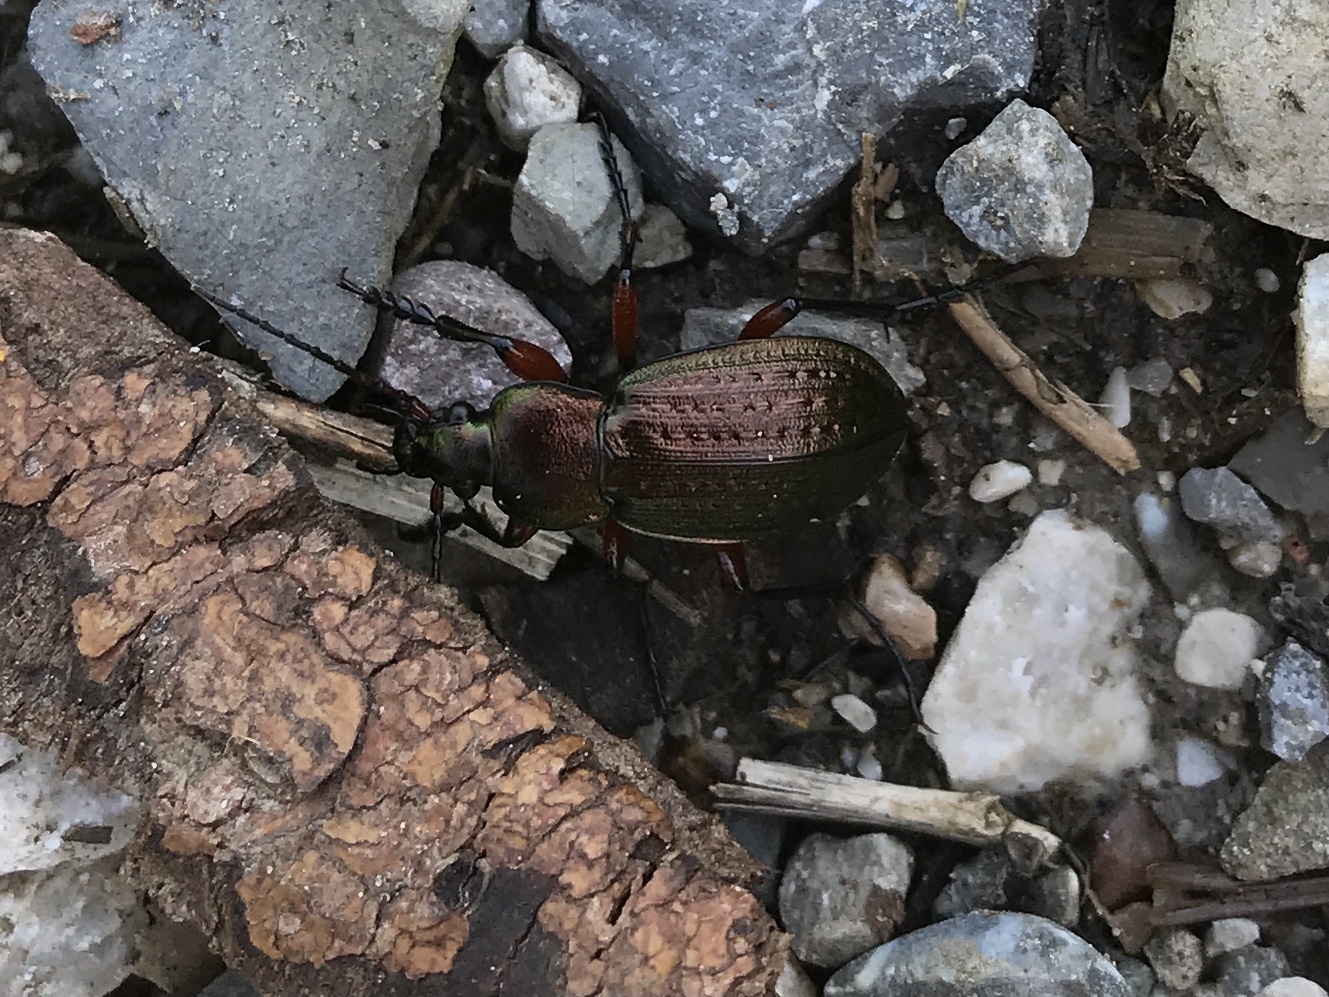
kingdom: Animalia
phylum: Arthropoda
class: Insecta
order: Coleoptera
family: Carabidae
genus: Carabus
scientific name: Carabus arvensis
